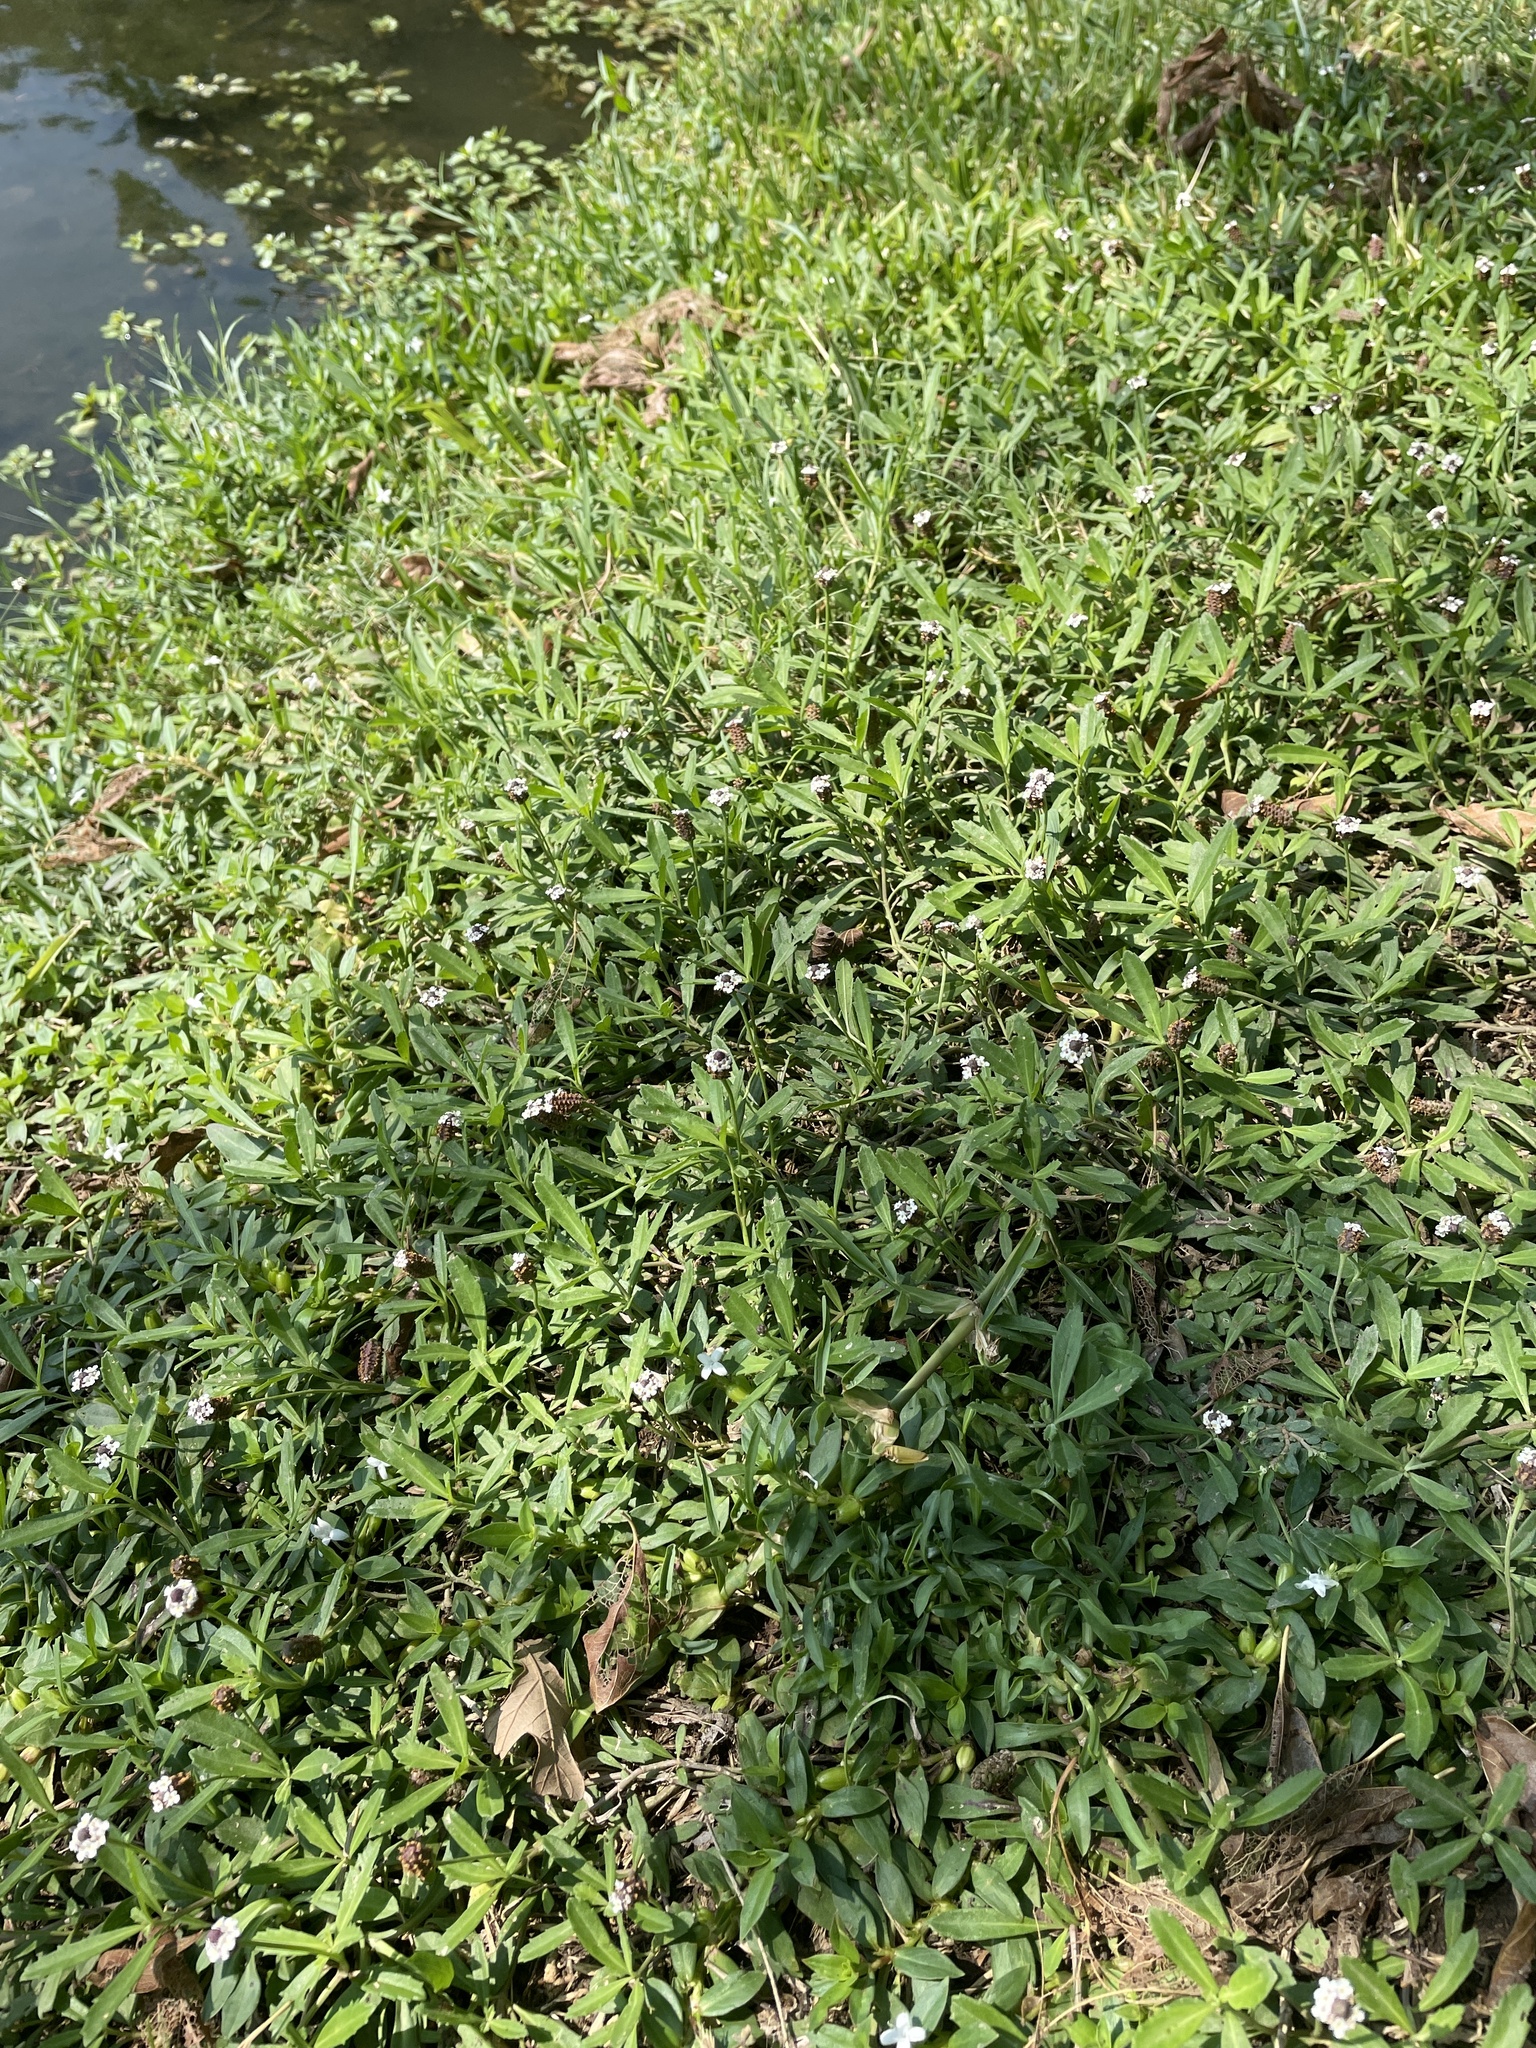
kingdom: Plantae
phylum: Tracheophyta
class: Magnoliopsida
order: Lamiales
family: Verbenaceae
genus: Phyla
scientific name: Phyla nodiflora
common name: Frogfruit
